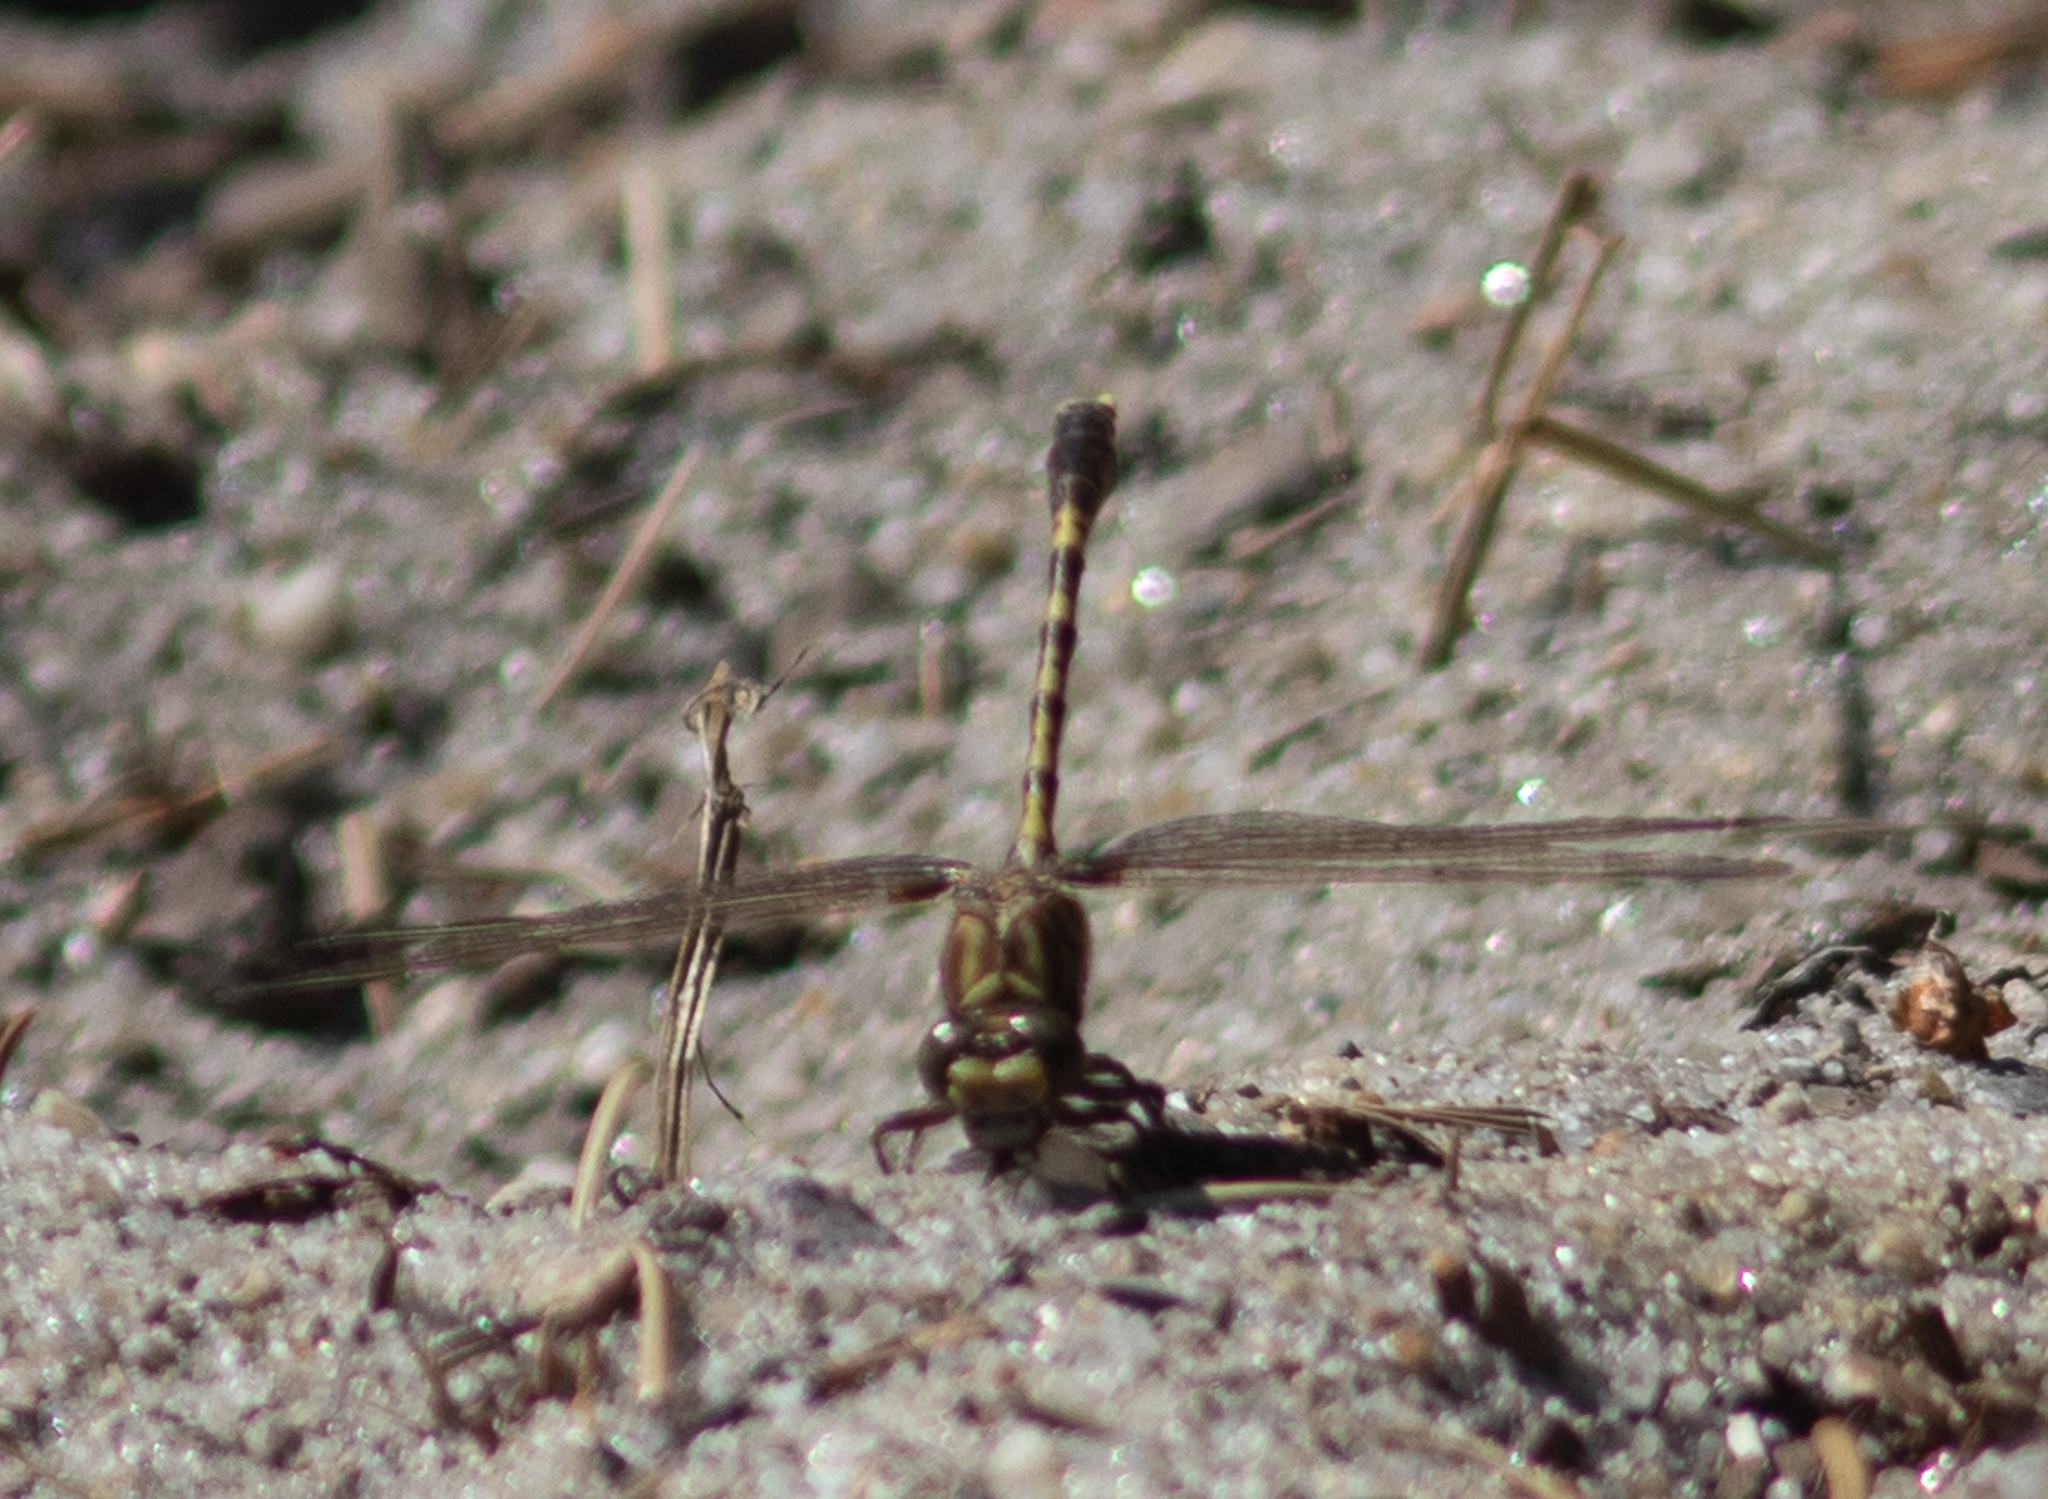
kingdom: Animalia
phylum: Arthropoda
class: Insecta
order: Odonata
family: Gomphidae
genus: Progomphus
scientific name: Progomphus obscurus
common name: Common sanddragon
